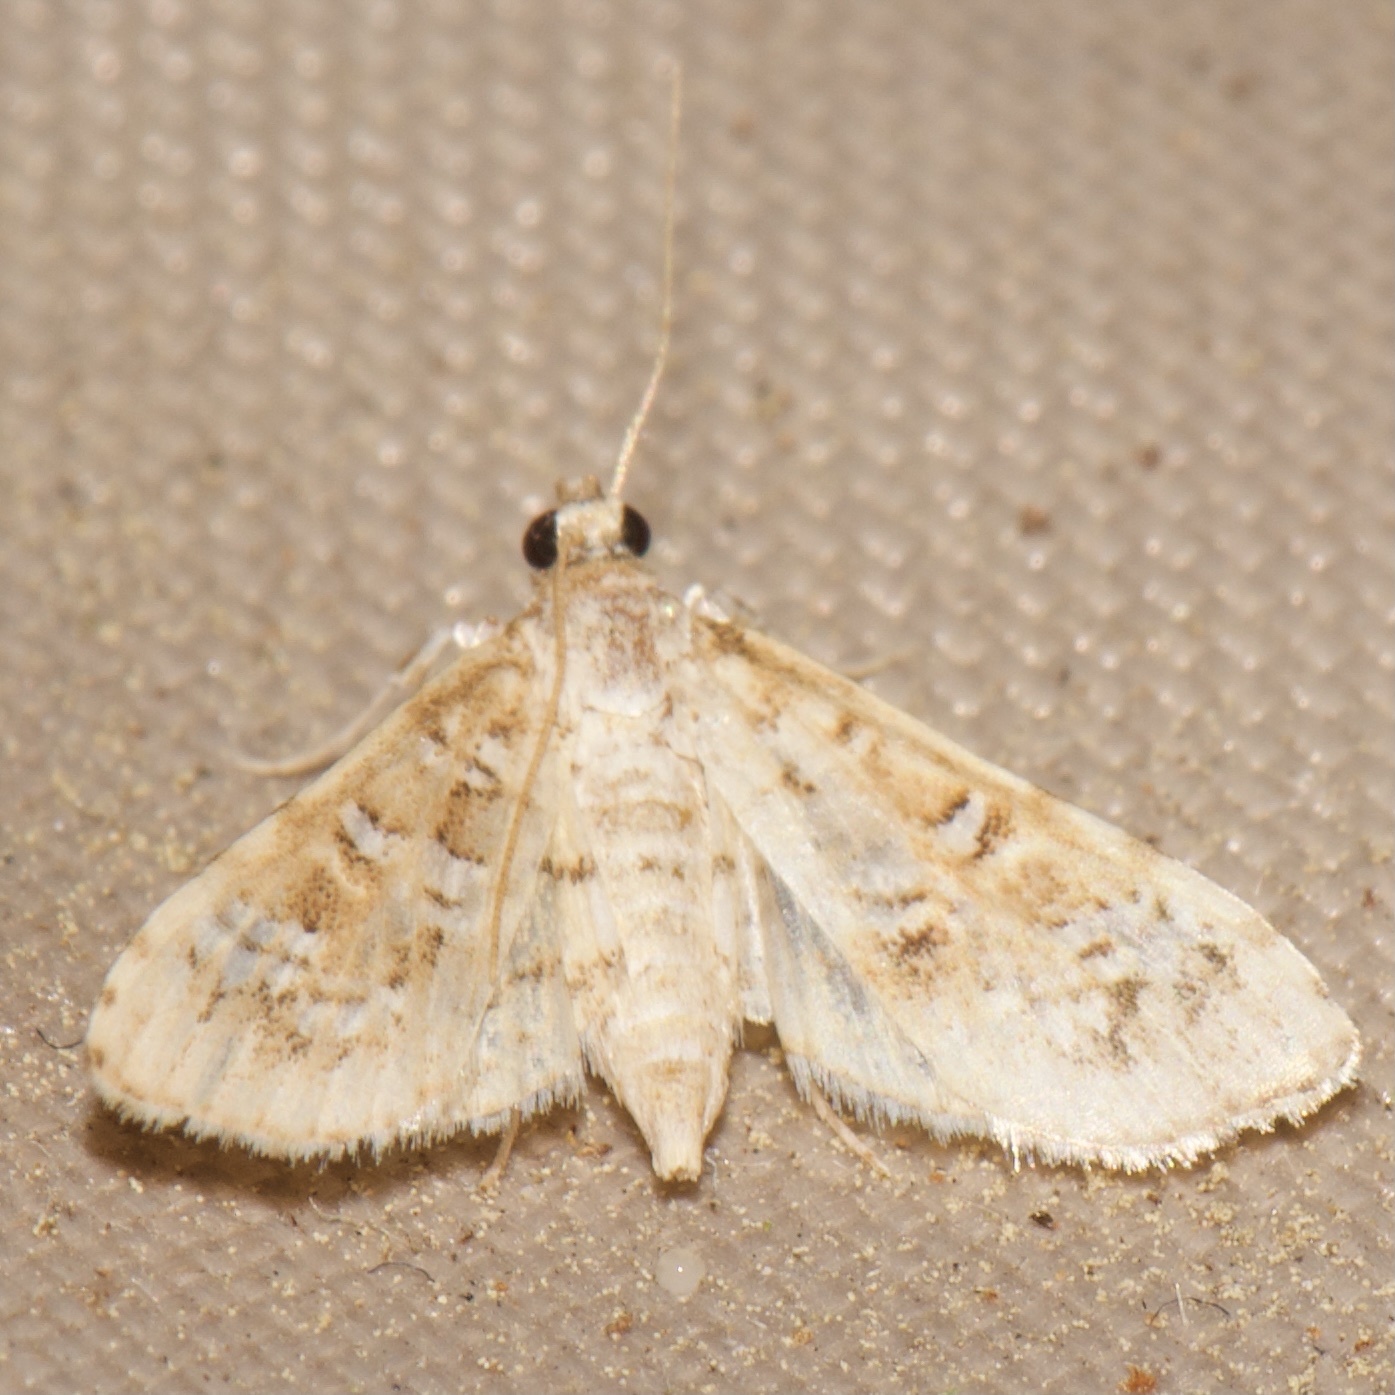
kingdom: Animalia
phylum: Arthropoda
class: Insecta
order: Lepidoptera
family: Crambidae
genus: Samea
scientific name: Samea multiplicalis
